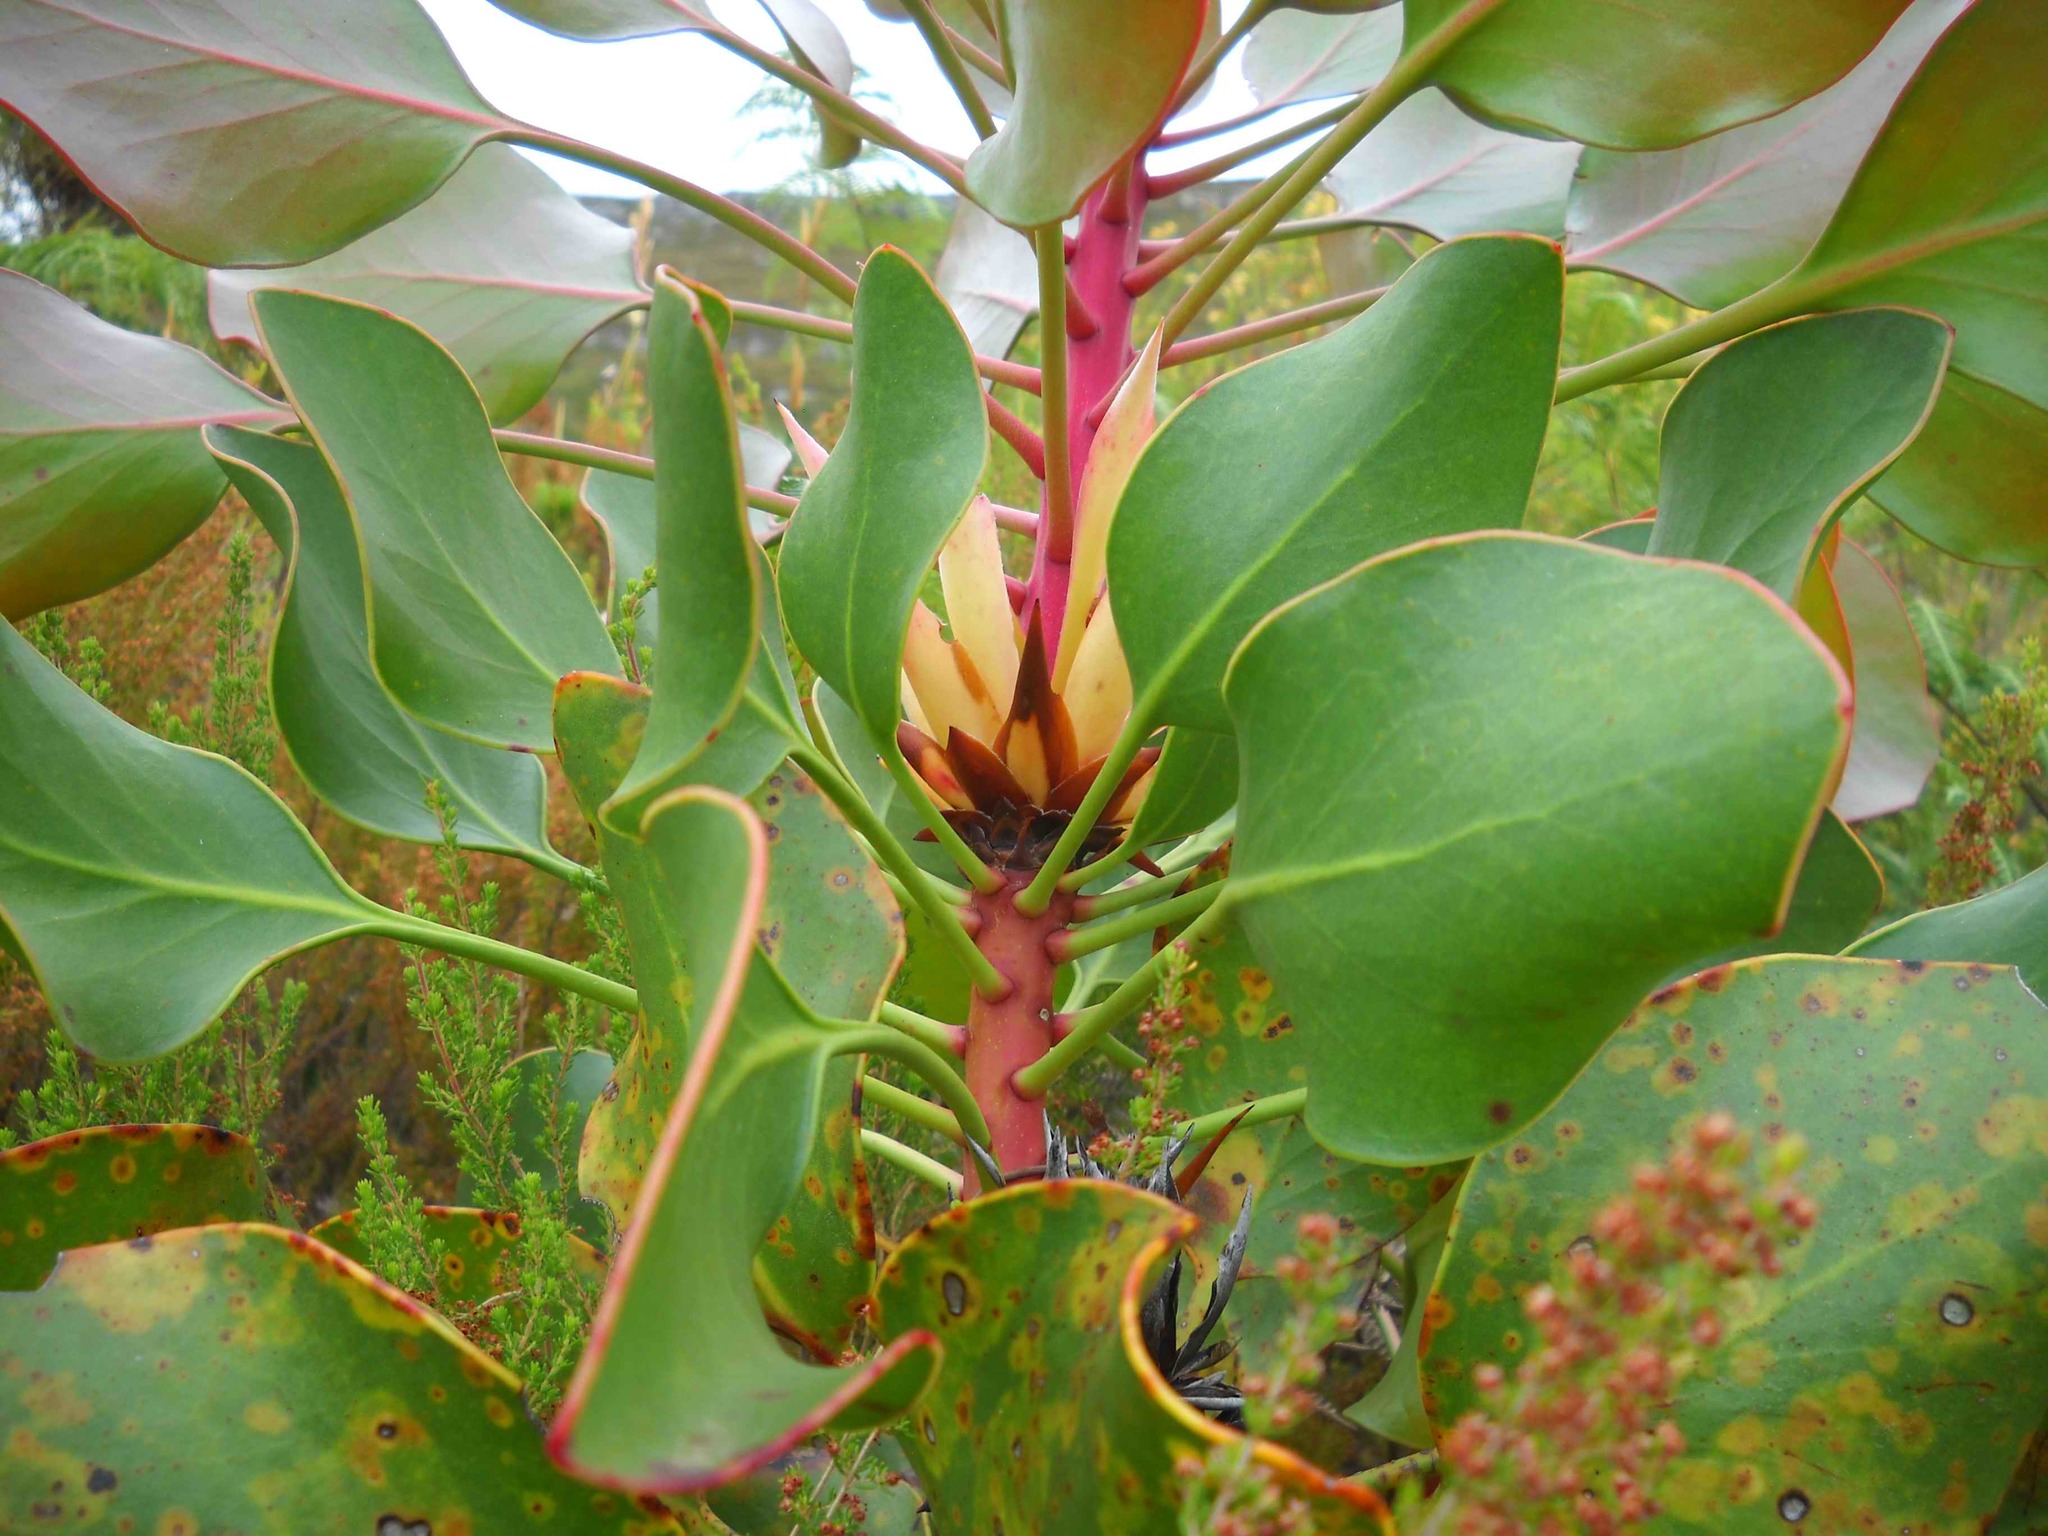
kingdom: Plantae
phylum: Tracheophyta
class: Magnoliopsida
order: Proteales
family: Proteaceae
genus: Protea
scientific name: Protea cynaroides
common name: King protea
